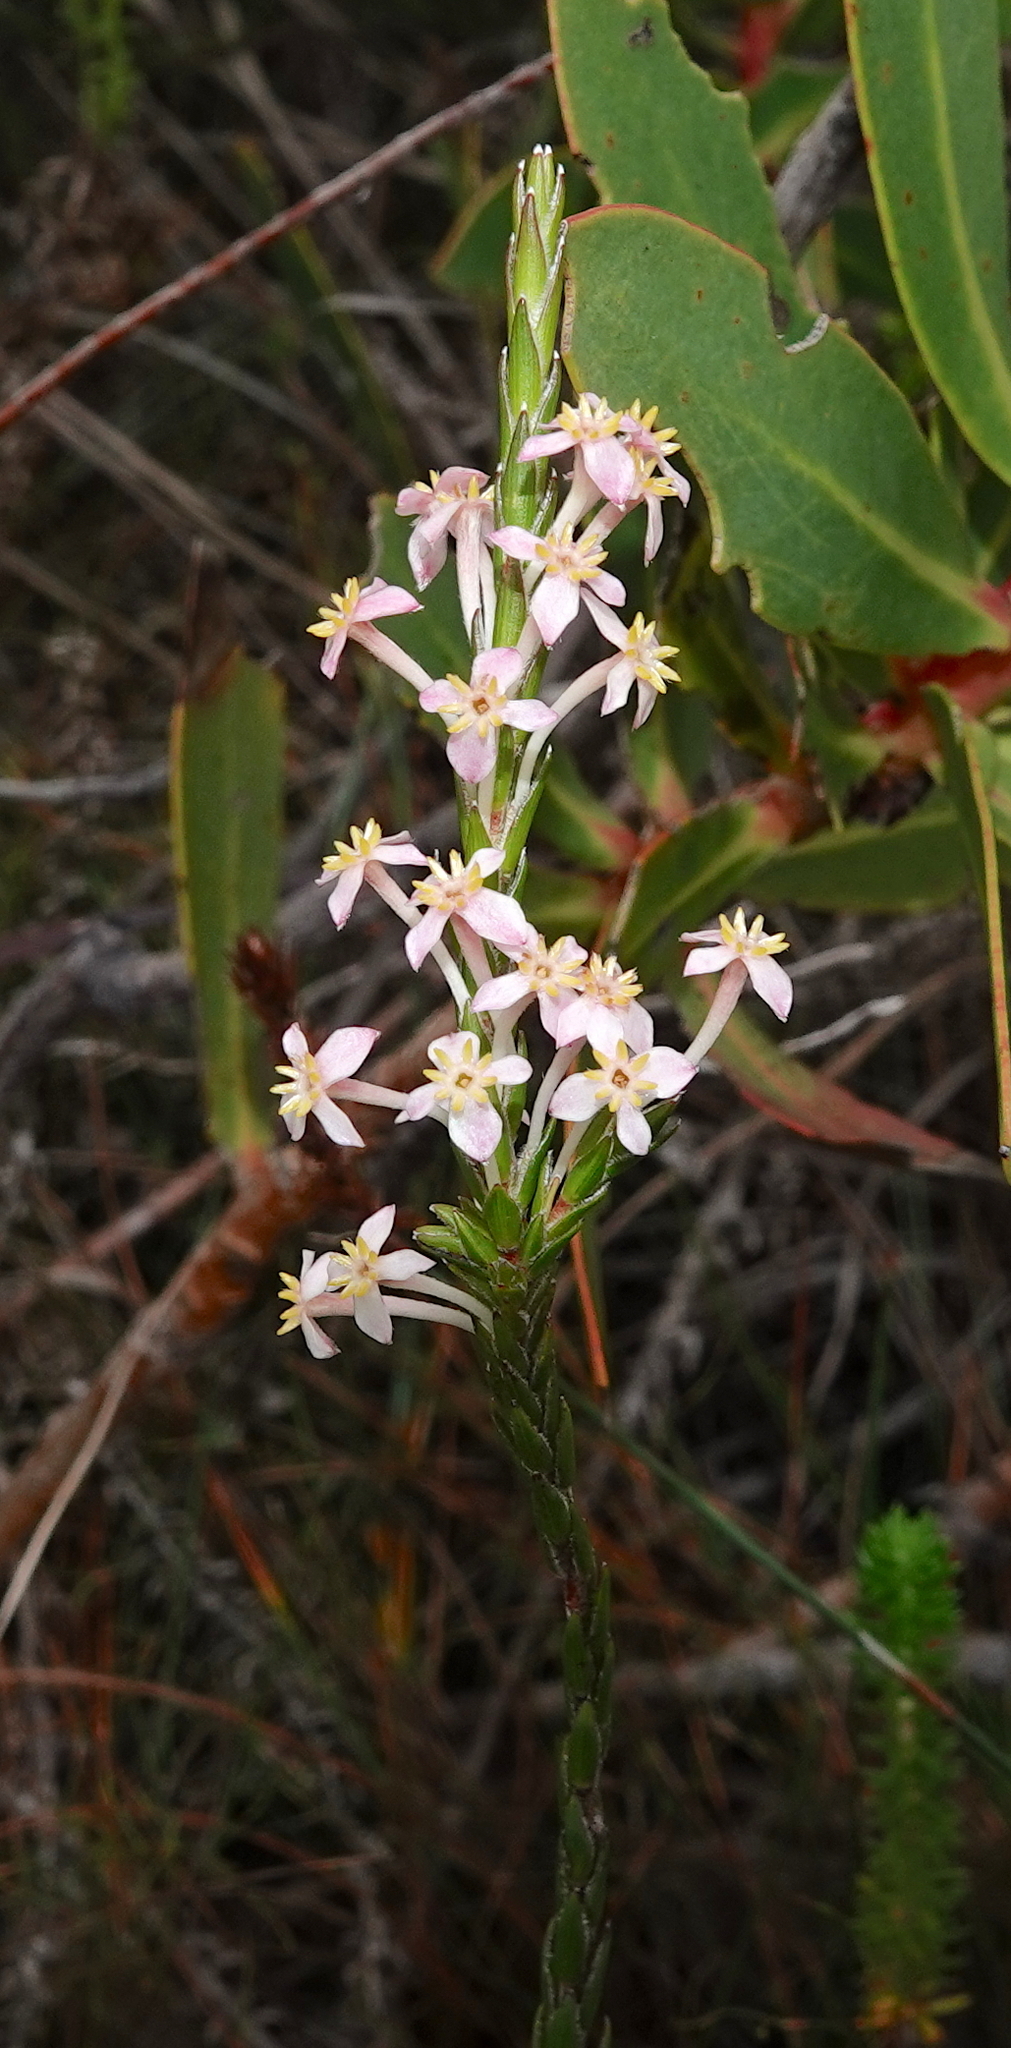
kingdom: Plantae
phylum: Tracheophyta
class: Magnoliopsida
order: Malvales
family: Thymelaeaceae
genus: Struthiola
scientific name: Struthiola ciliata
